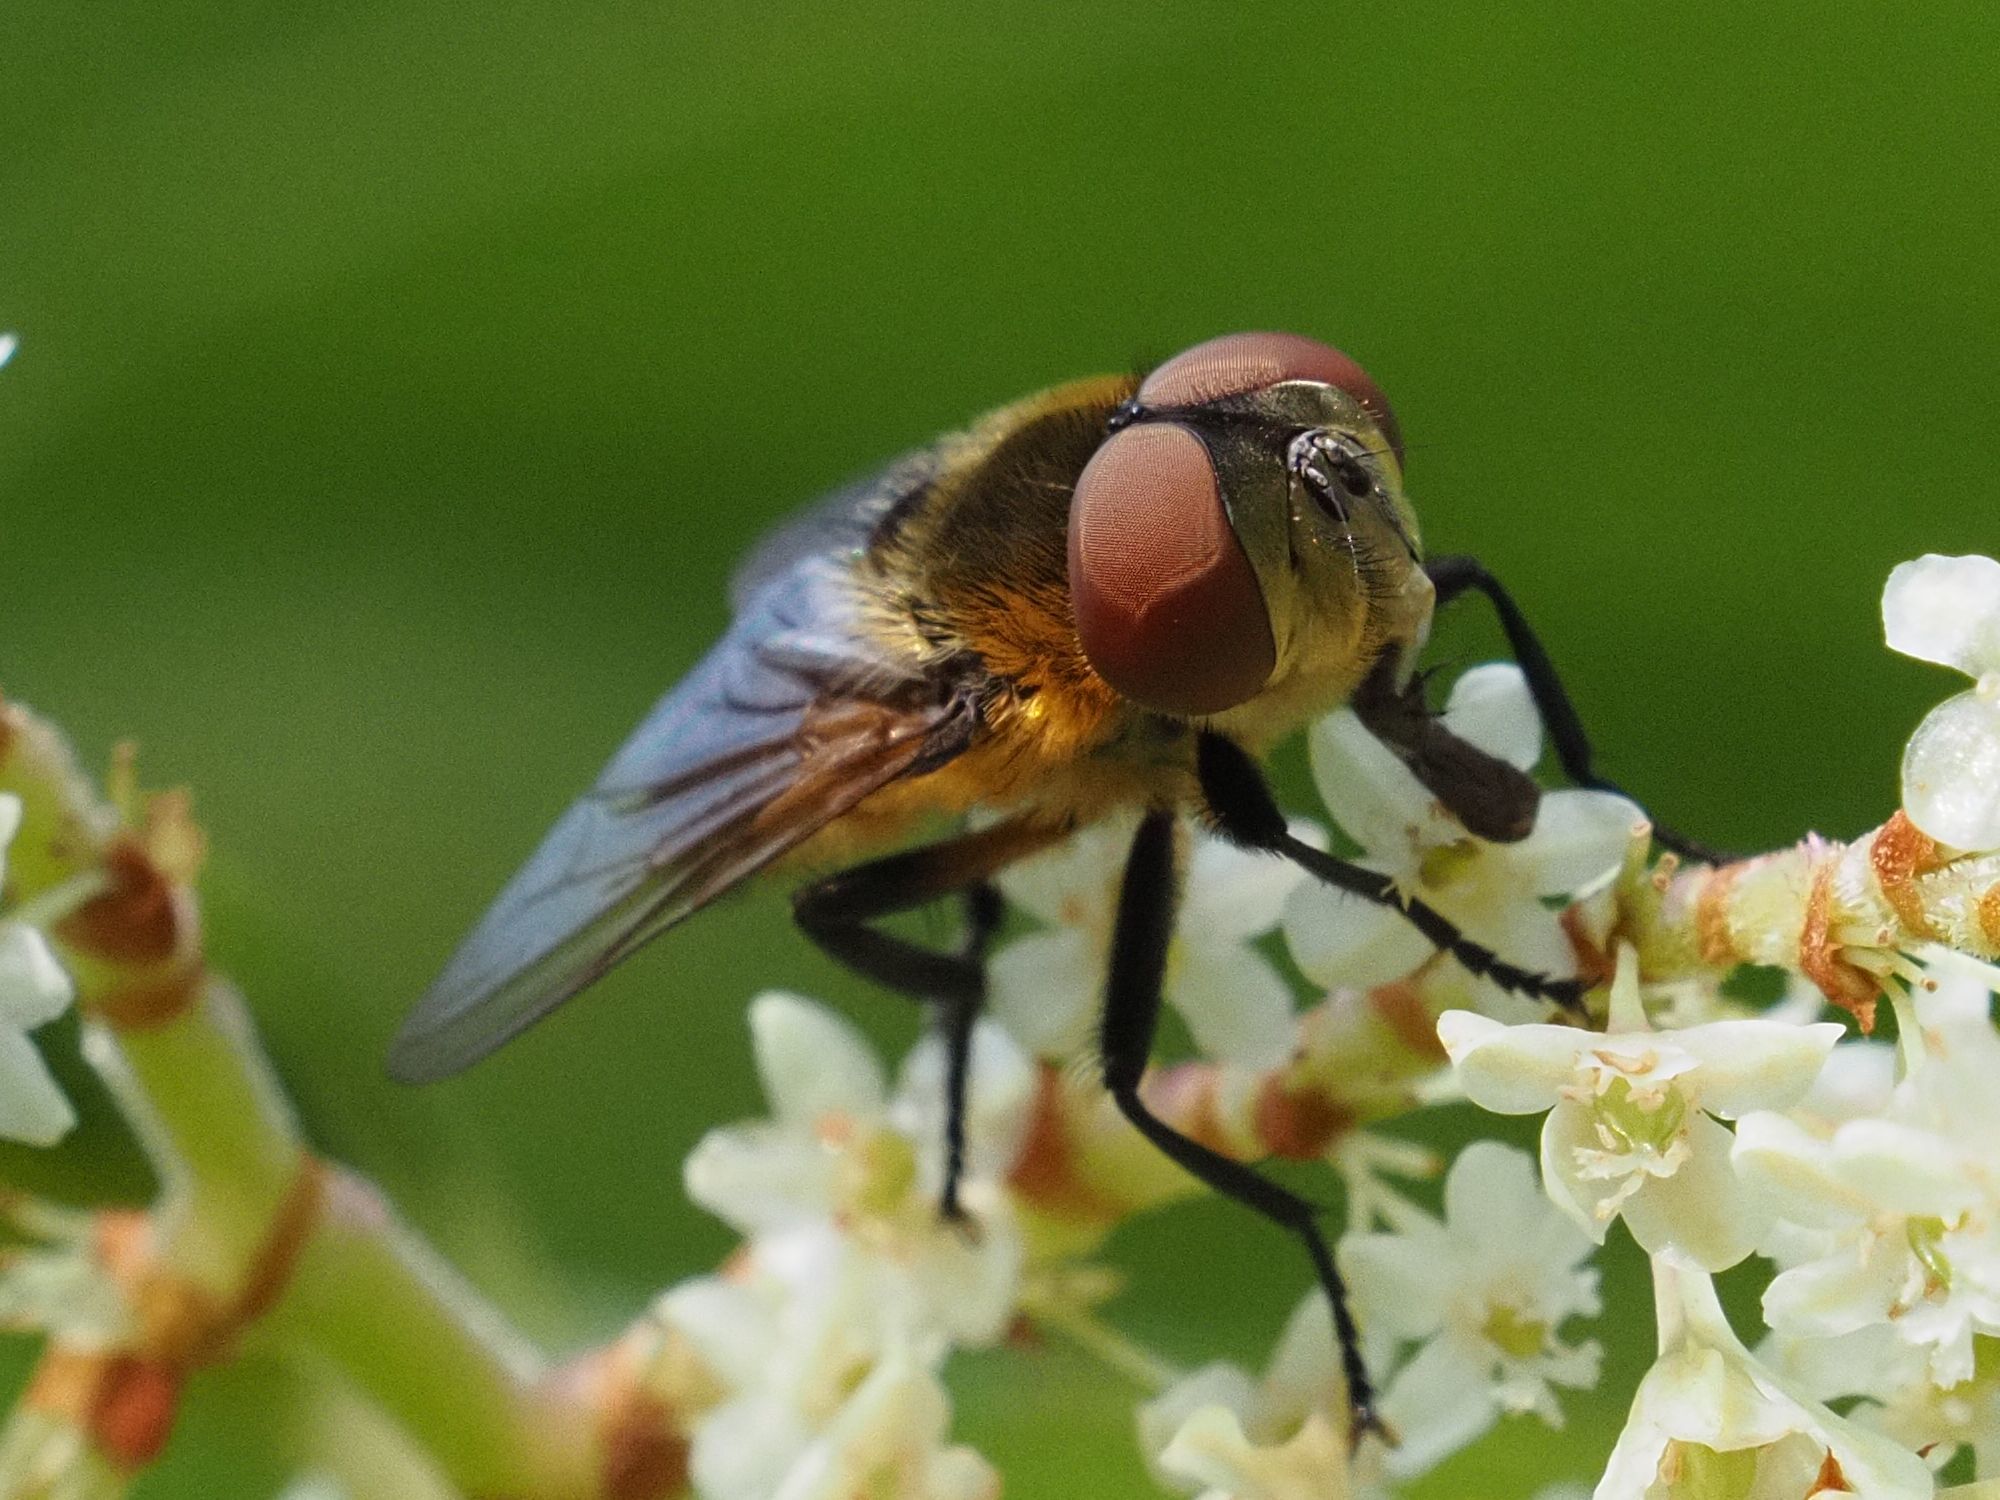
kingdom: Animalia
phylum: Arthropoda
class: Insecta
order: Diptera
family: Tachinidae
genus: Phasia
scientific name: Phasia hemiptera
